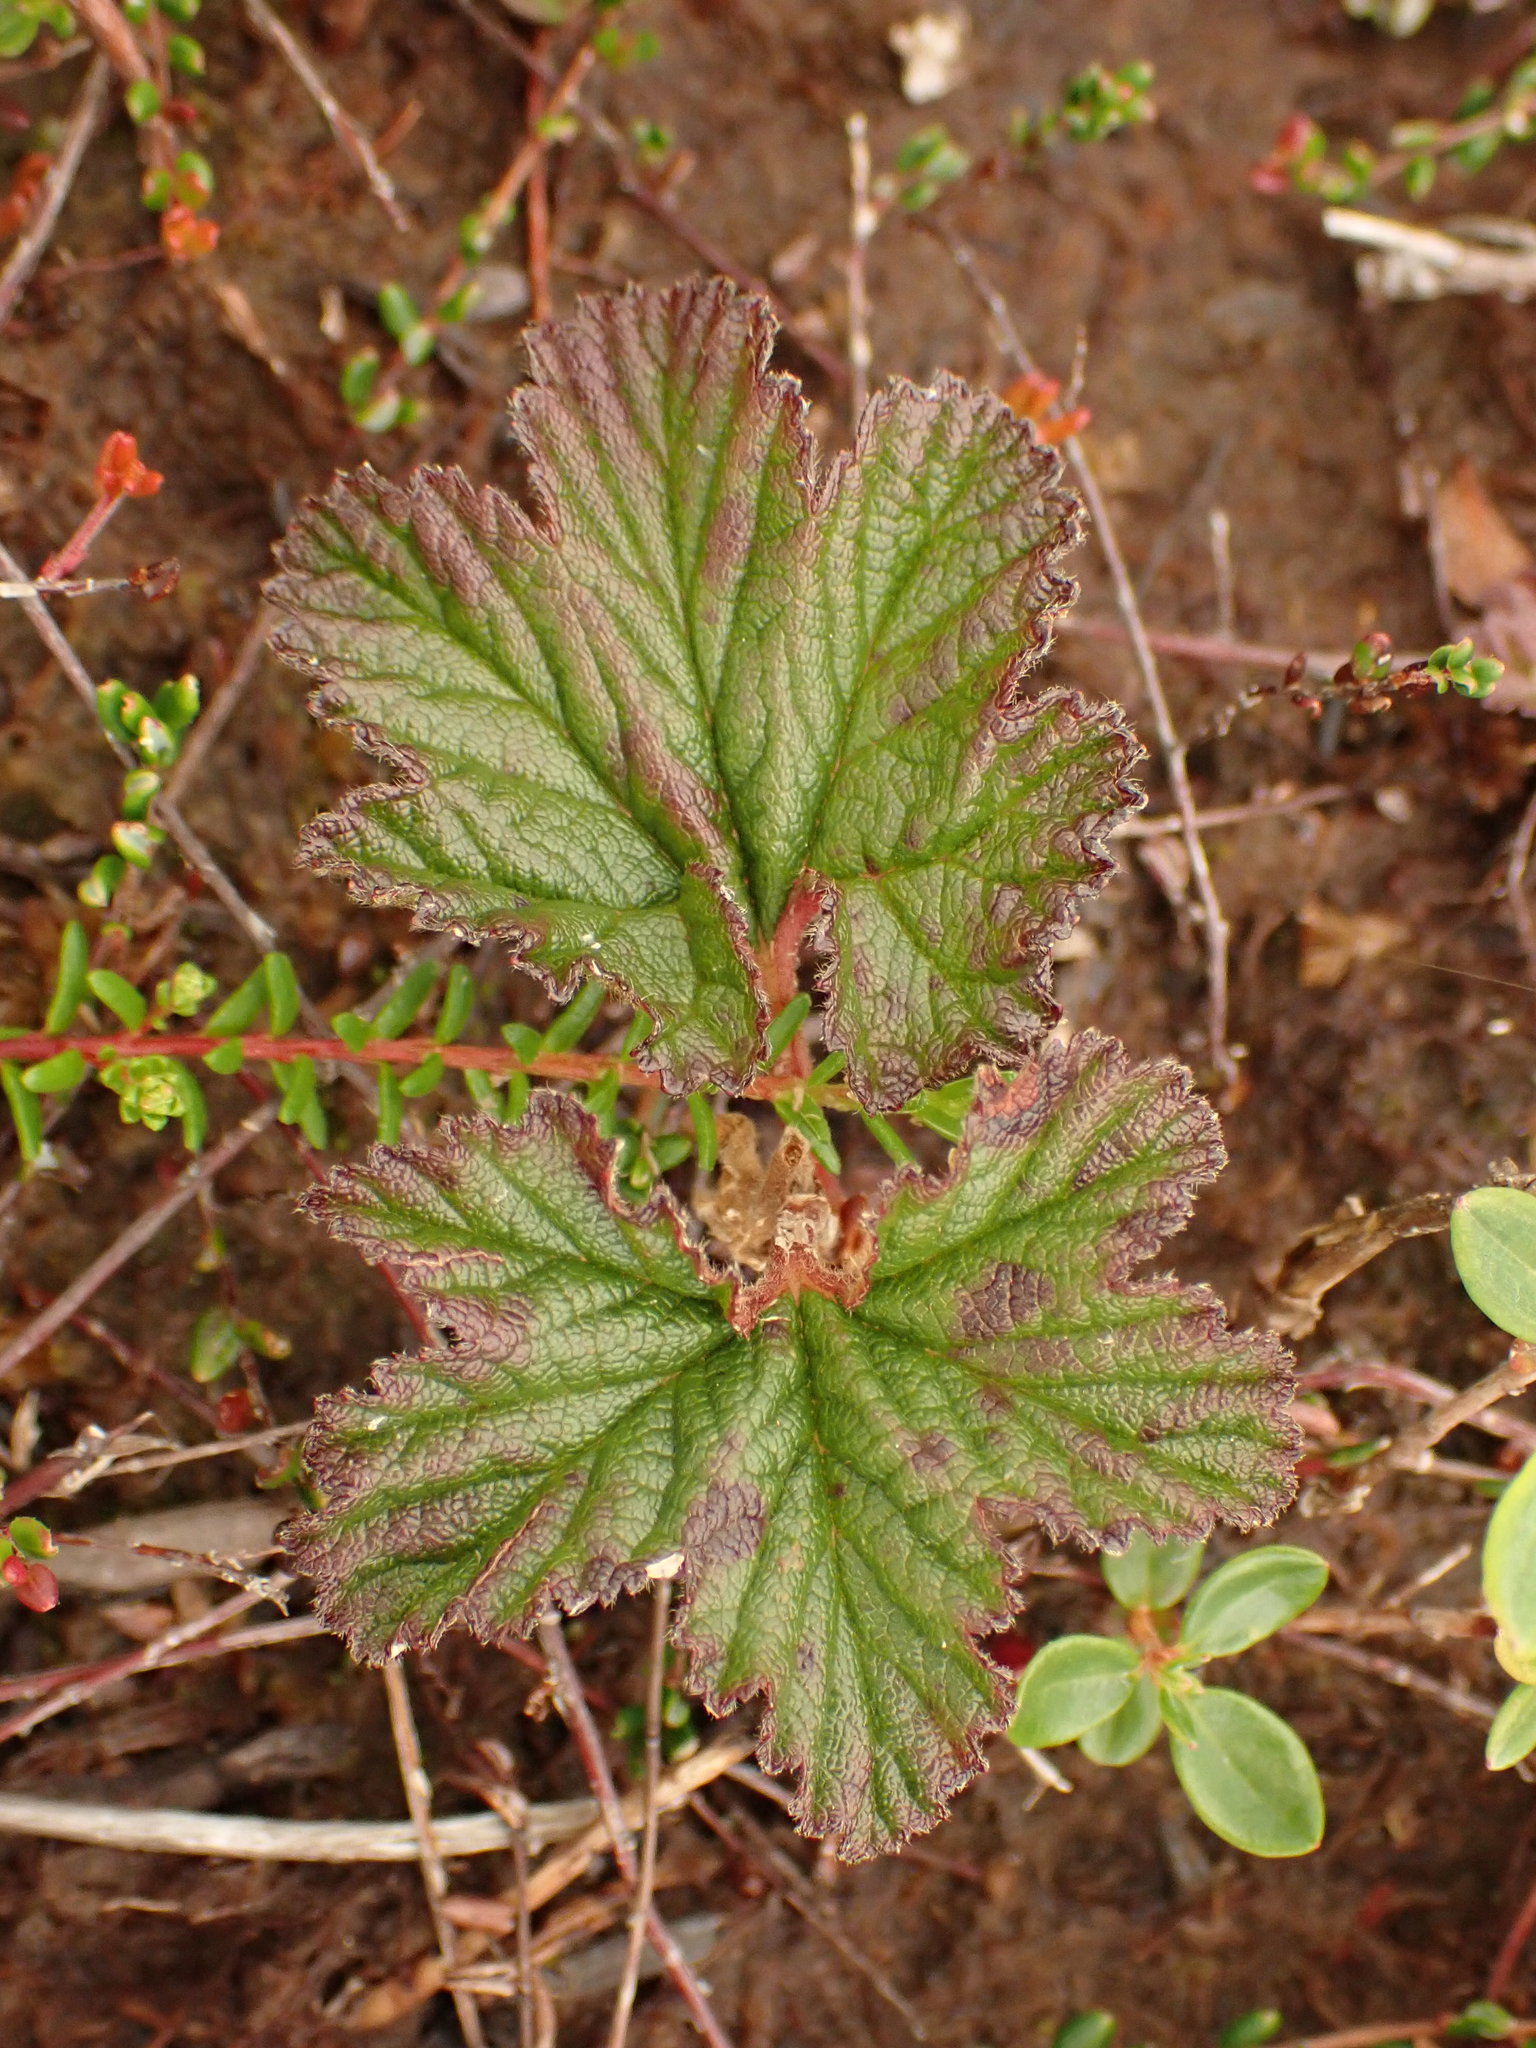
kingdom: Plantae
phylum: Tracheophyta
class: Magnoliopsida
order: Rosales
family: Rosaceae
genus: Rubus
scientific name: Rubus chamaemorus
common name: Cloudberry
